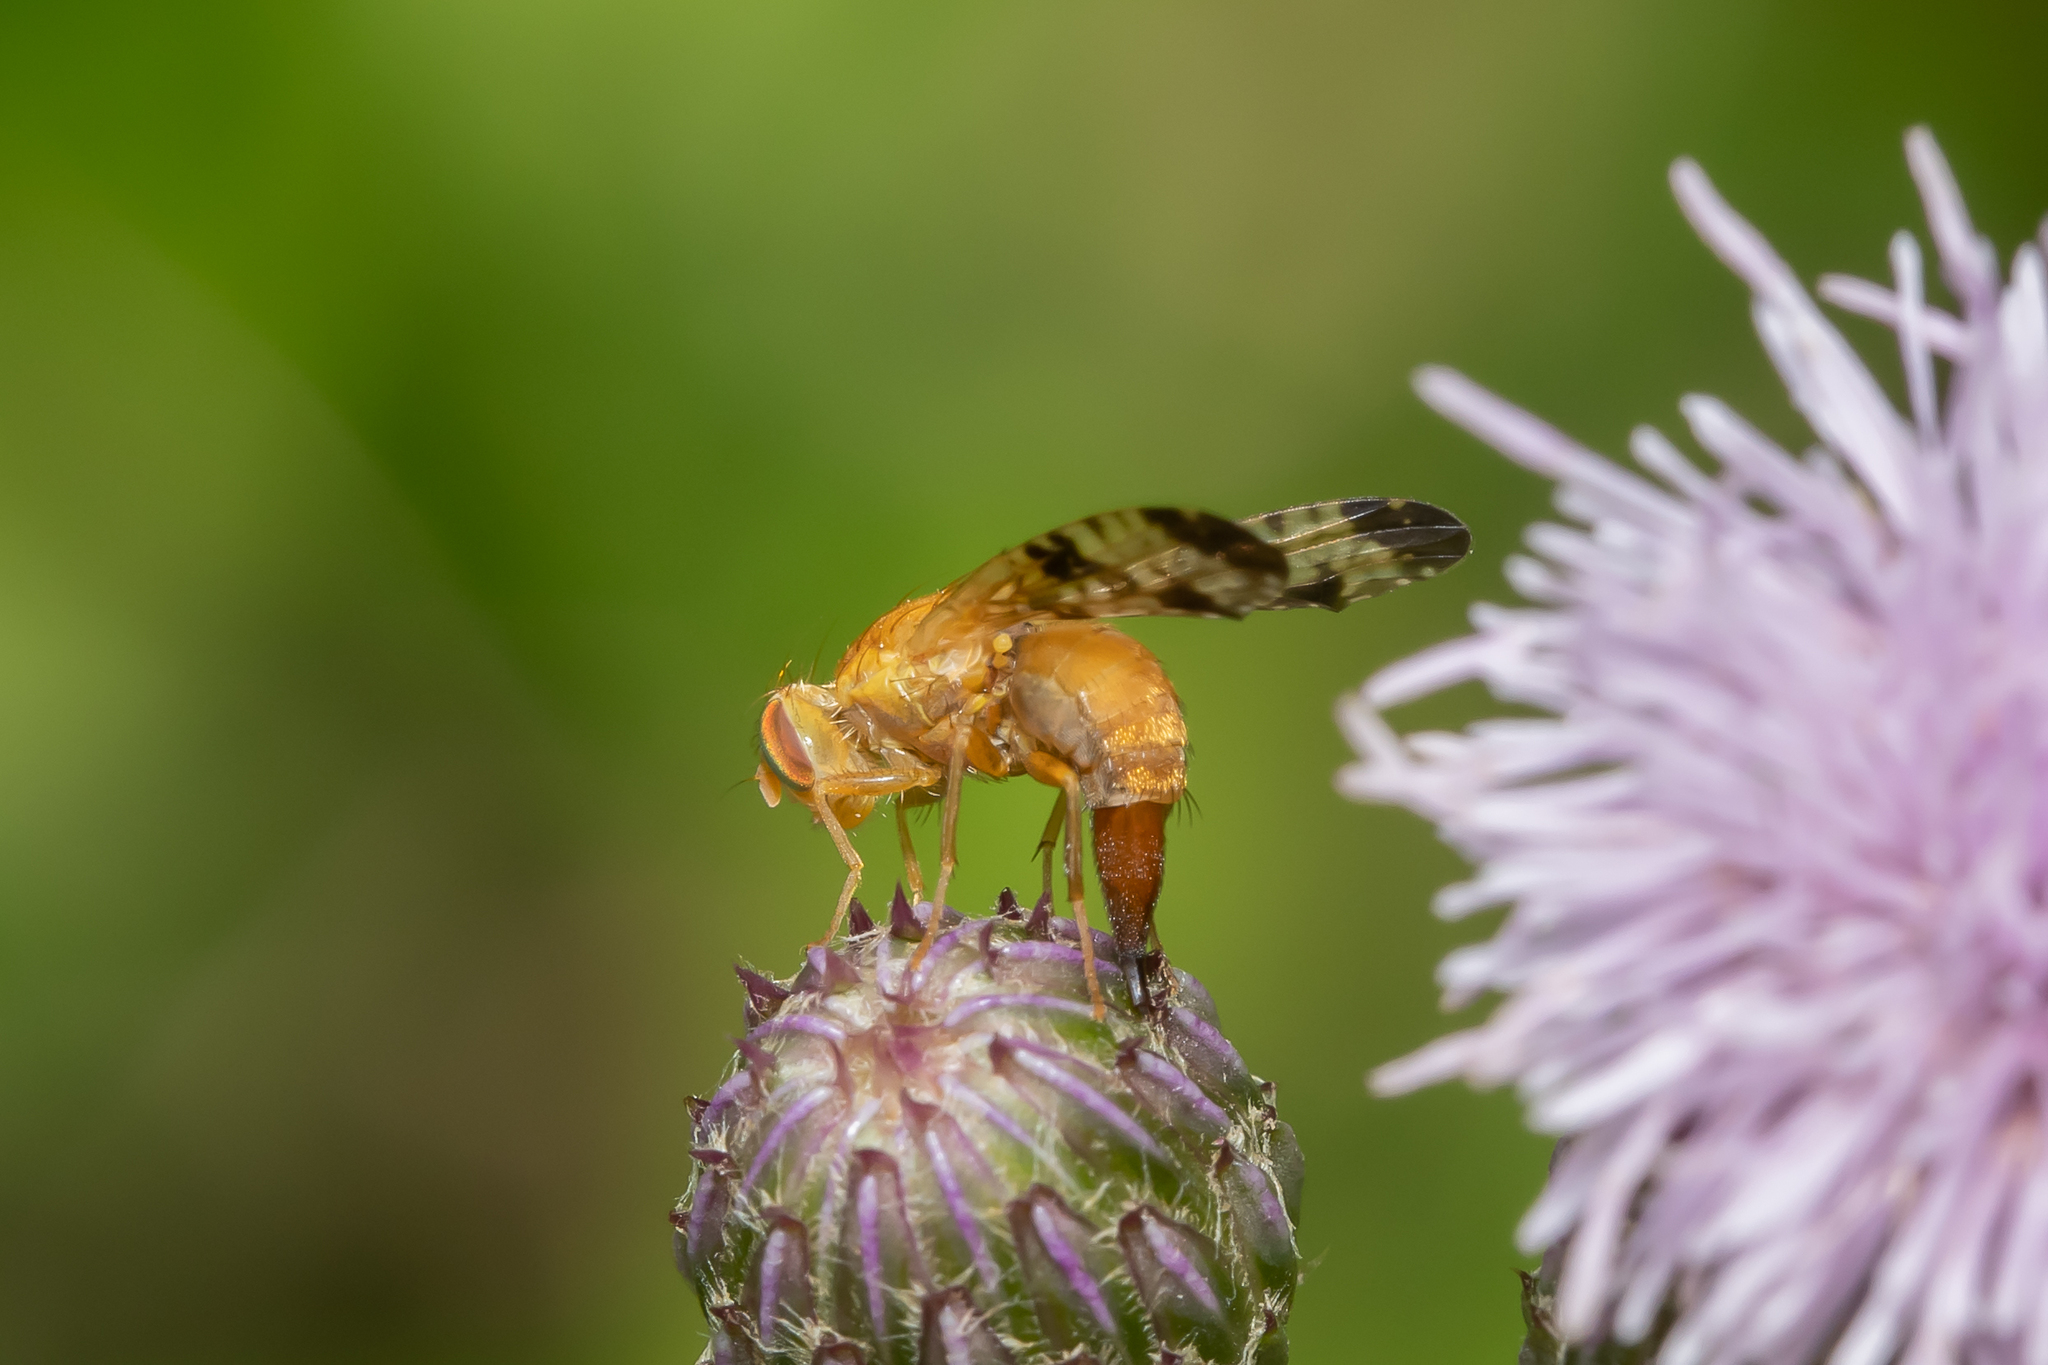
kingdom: Animalia
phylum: Arthropoda
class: Insecta
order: Diptera
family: Tephritidae
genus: Xyphosia
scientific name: Xyphosia miliaria
